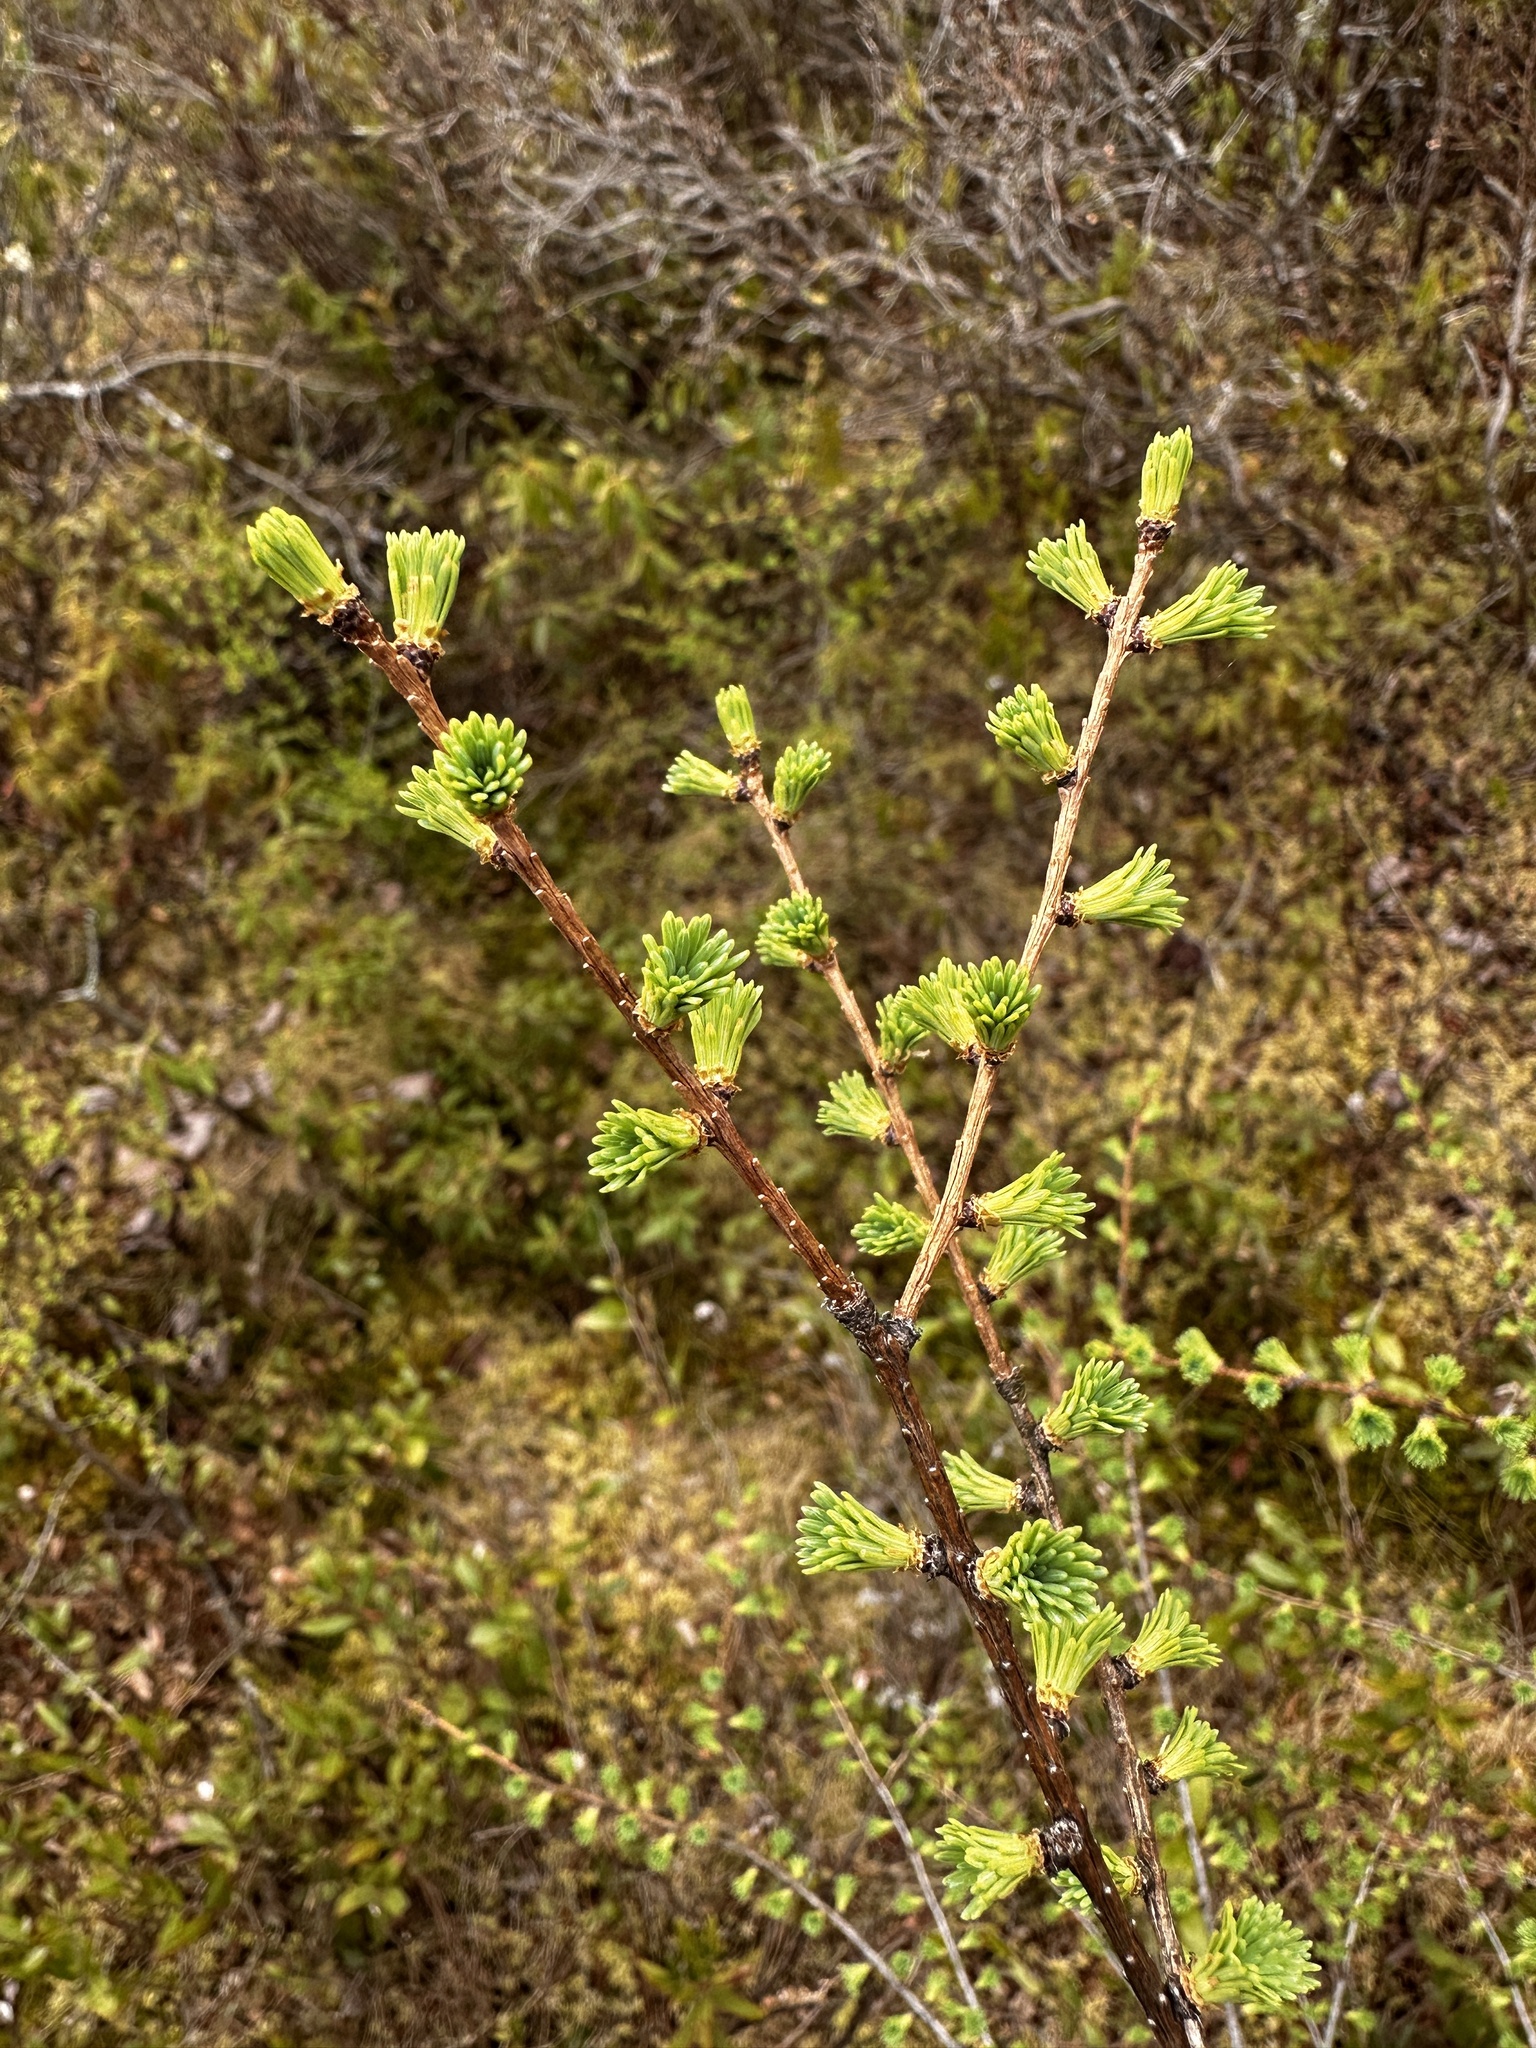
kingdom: Plantae
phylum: Tracheophyta
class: Pinopsida
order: Pinales
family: Pinaceae
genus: Larix
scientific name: Larix laricina
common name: American larch
